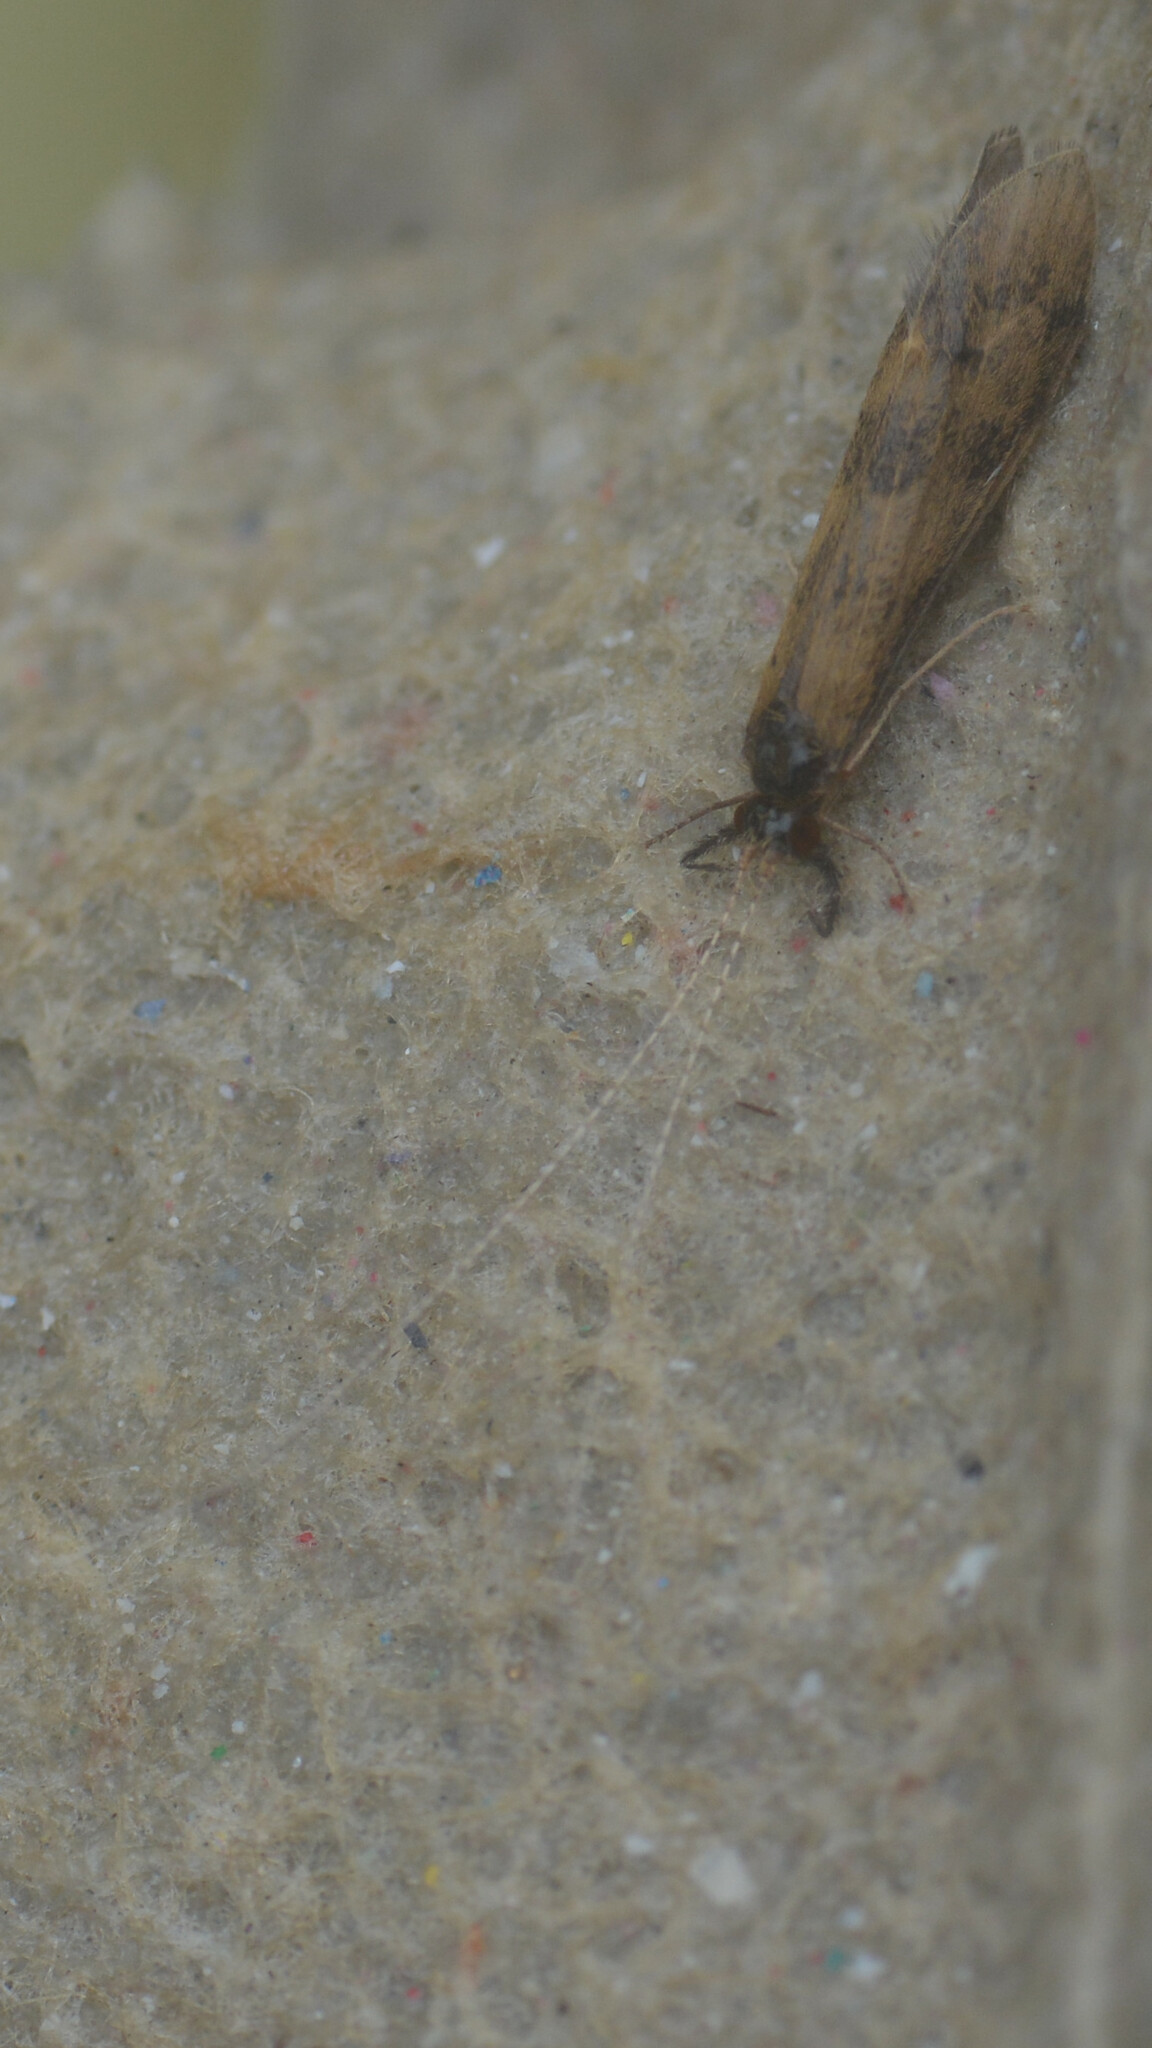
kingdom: Animalia
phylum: Arthropoda
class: Insecta
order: Trichoptera
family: Leptoceridae
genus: Mystacides
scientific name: Mystacides longicornis
